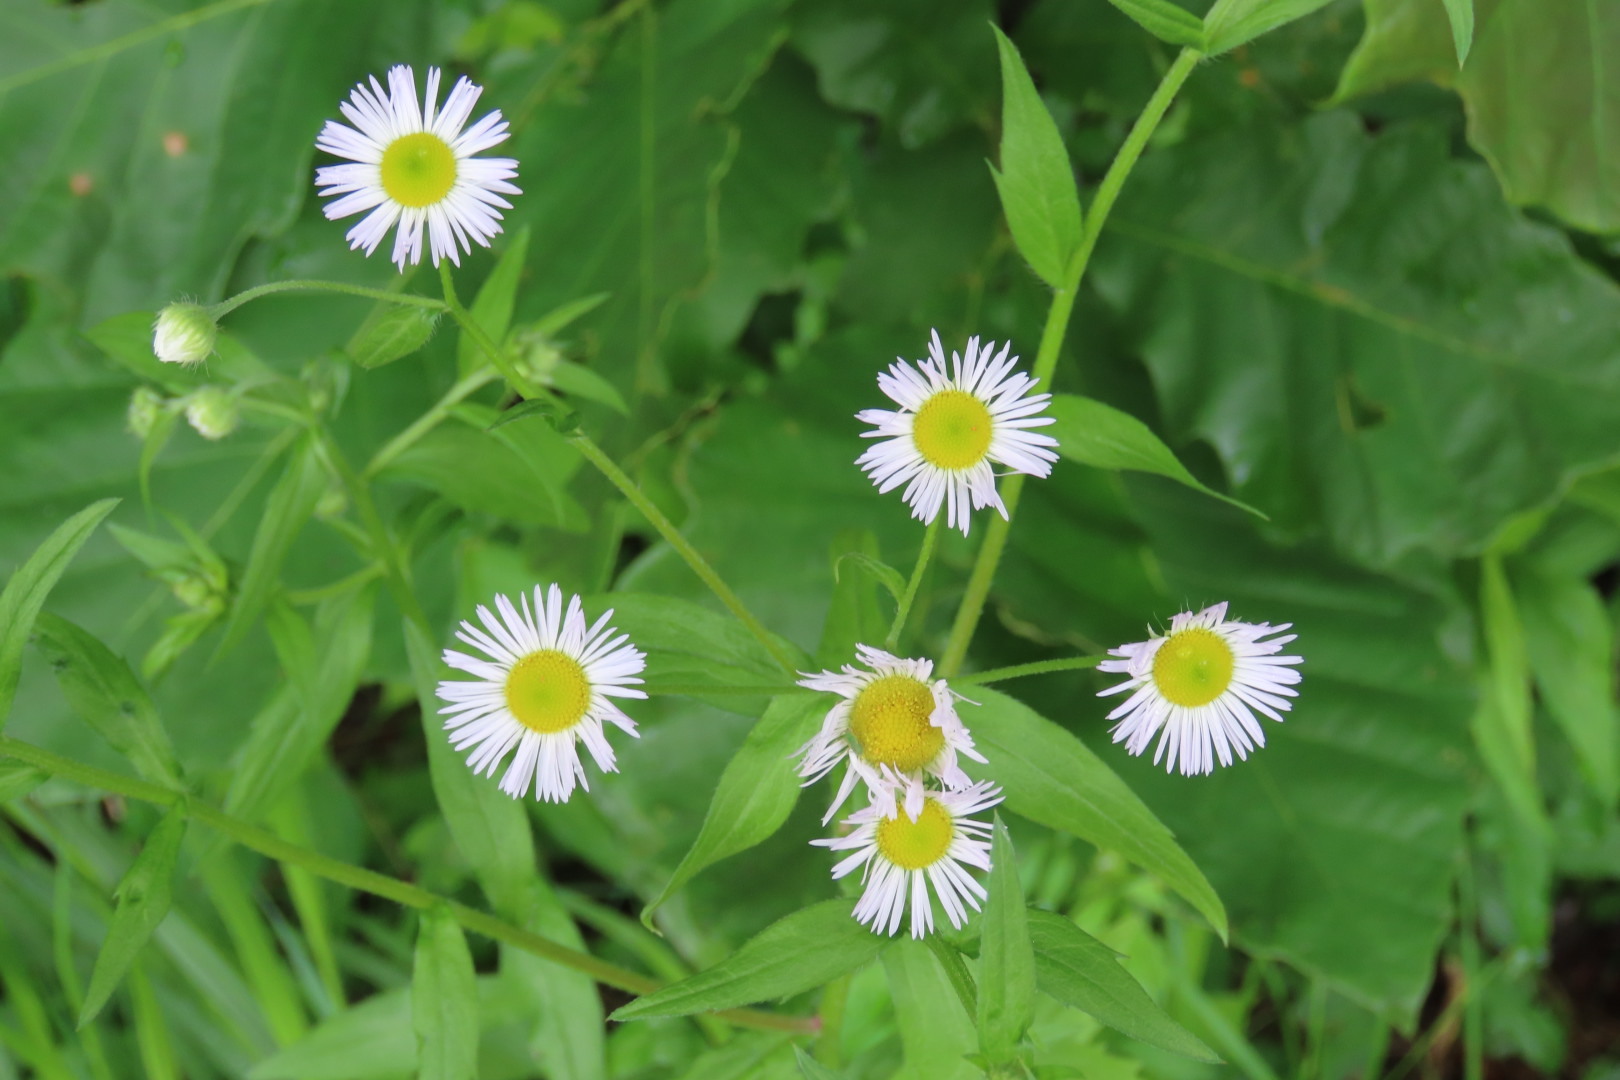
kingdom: Plantae
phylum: Tracheophyta
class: Magnoliopsida
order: Asterales
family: Asteraceae
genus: Erigeron
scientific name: Erigeron annuus
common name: Tall fleabane
